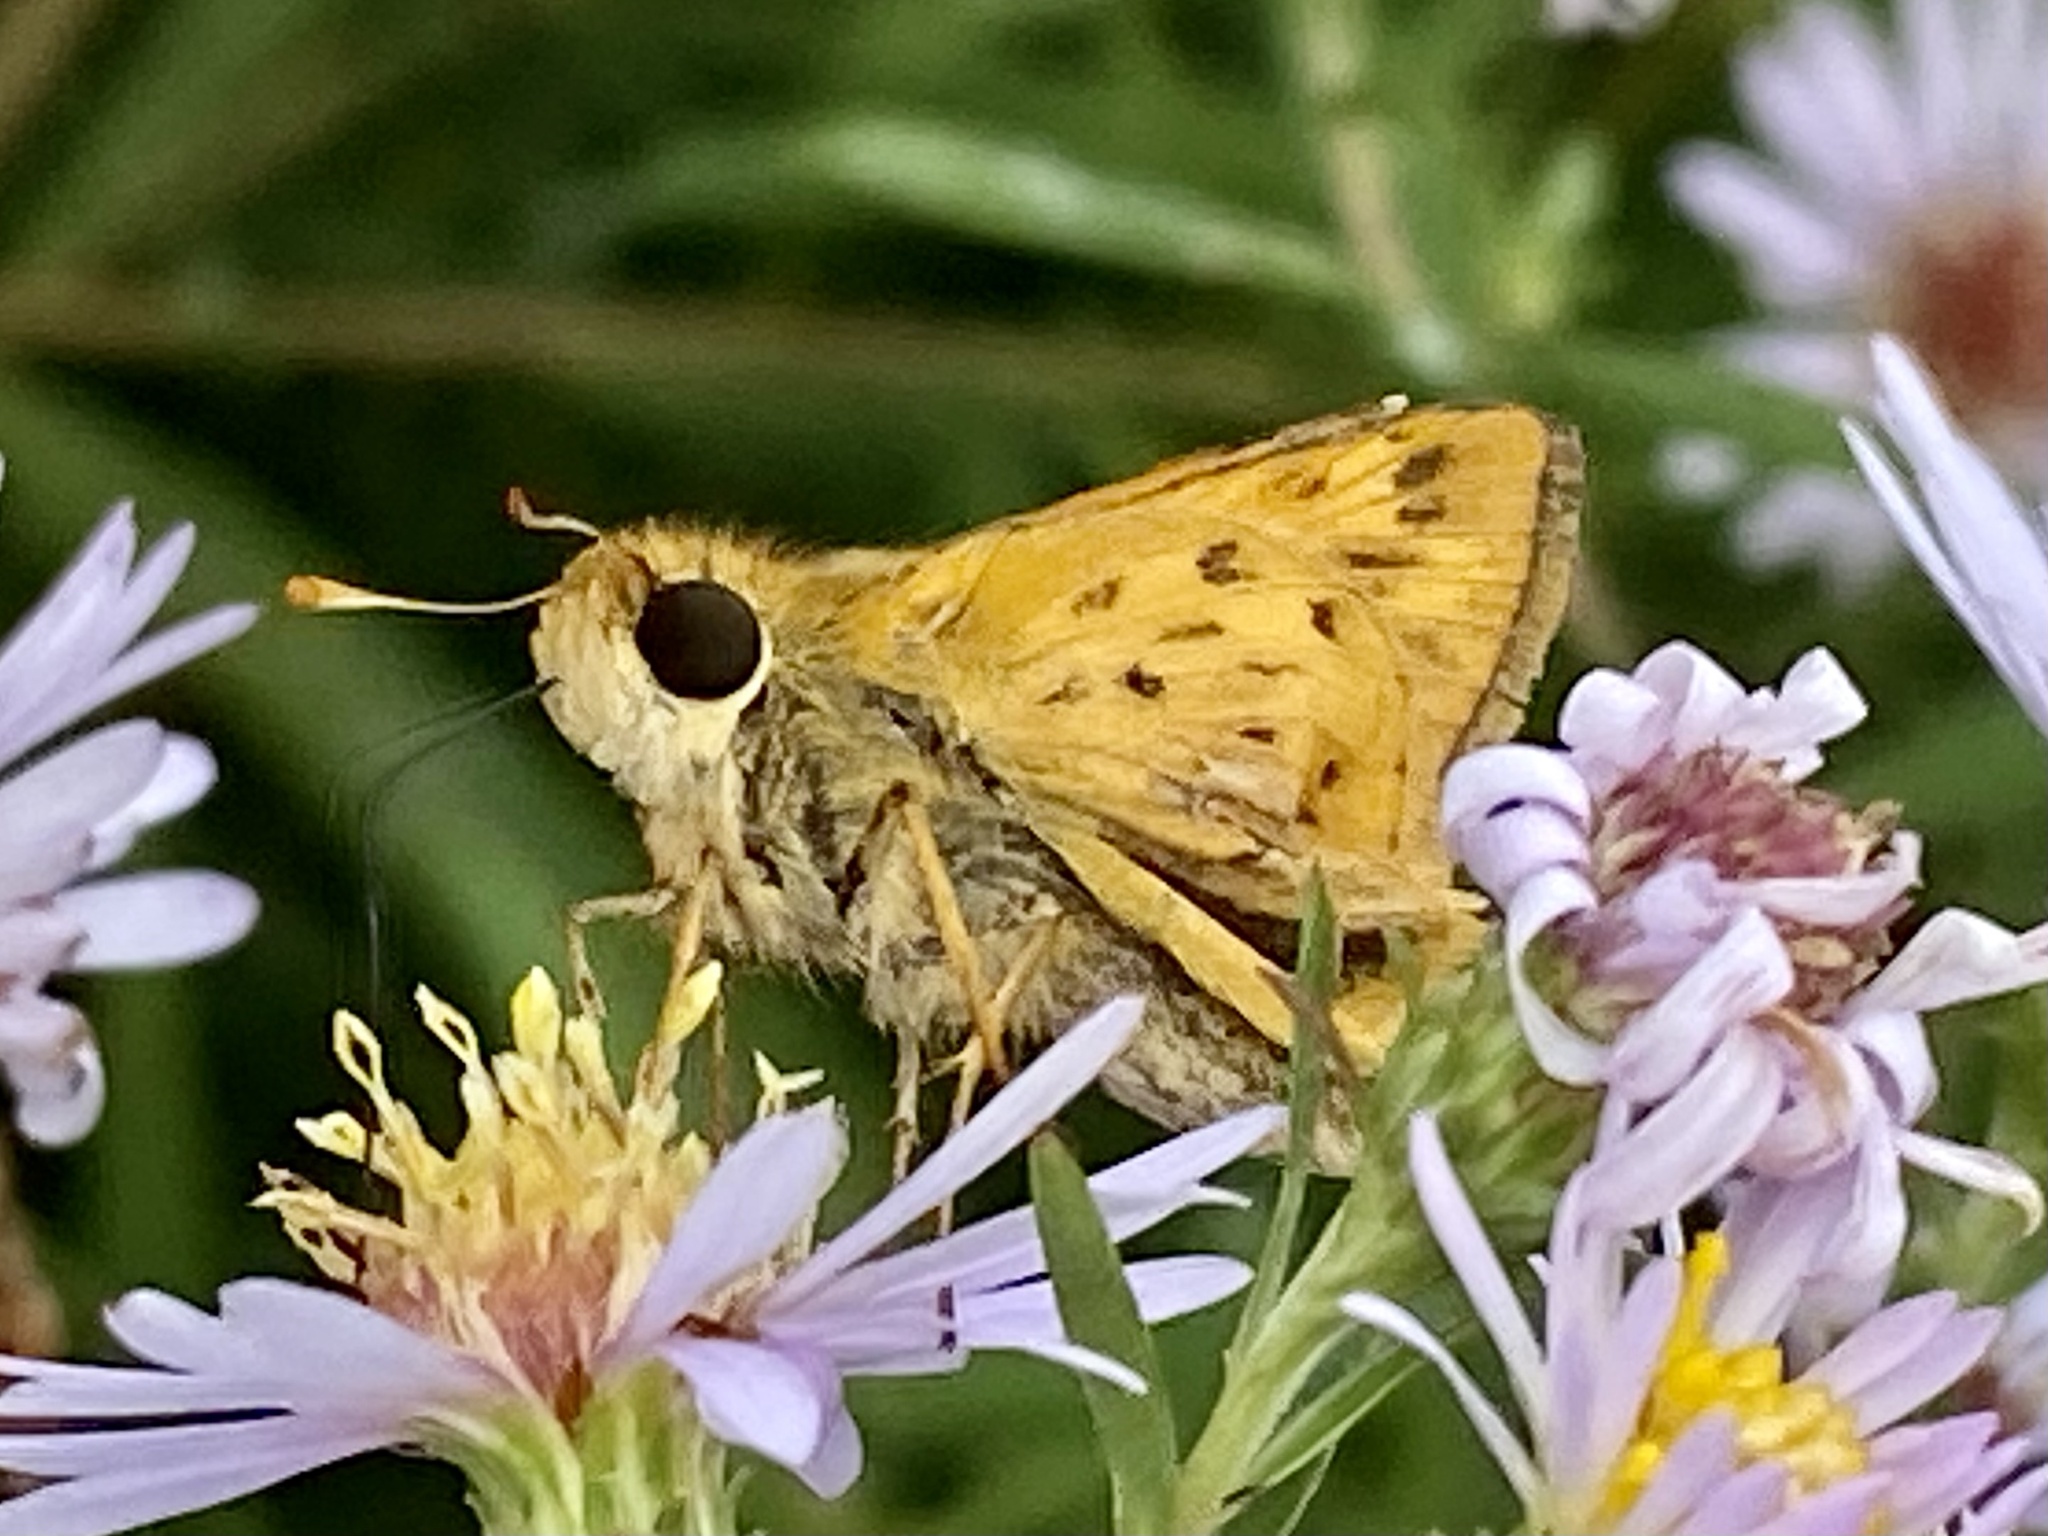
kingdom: Animalia
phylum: Arthropoda
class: Insecta
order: Lepidoptera
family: Hesperiidae
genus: Hylephila
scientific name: Hylephila phyleus
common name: Fiery skipper
